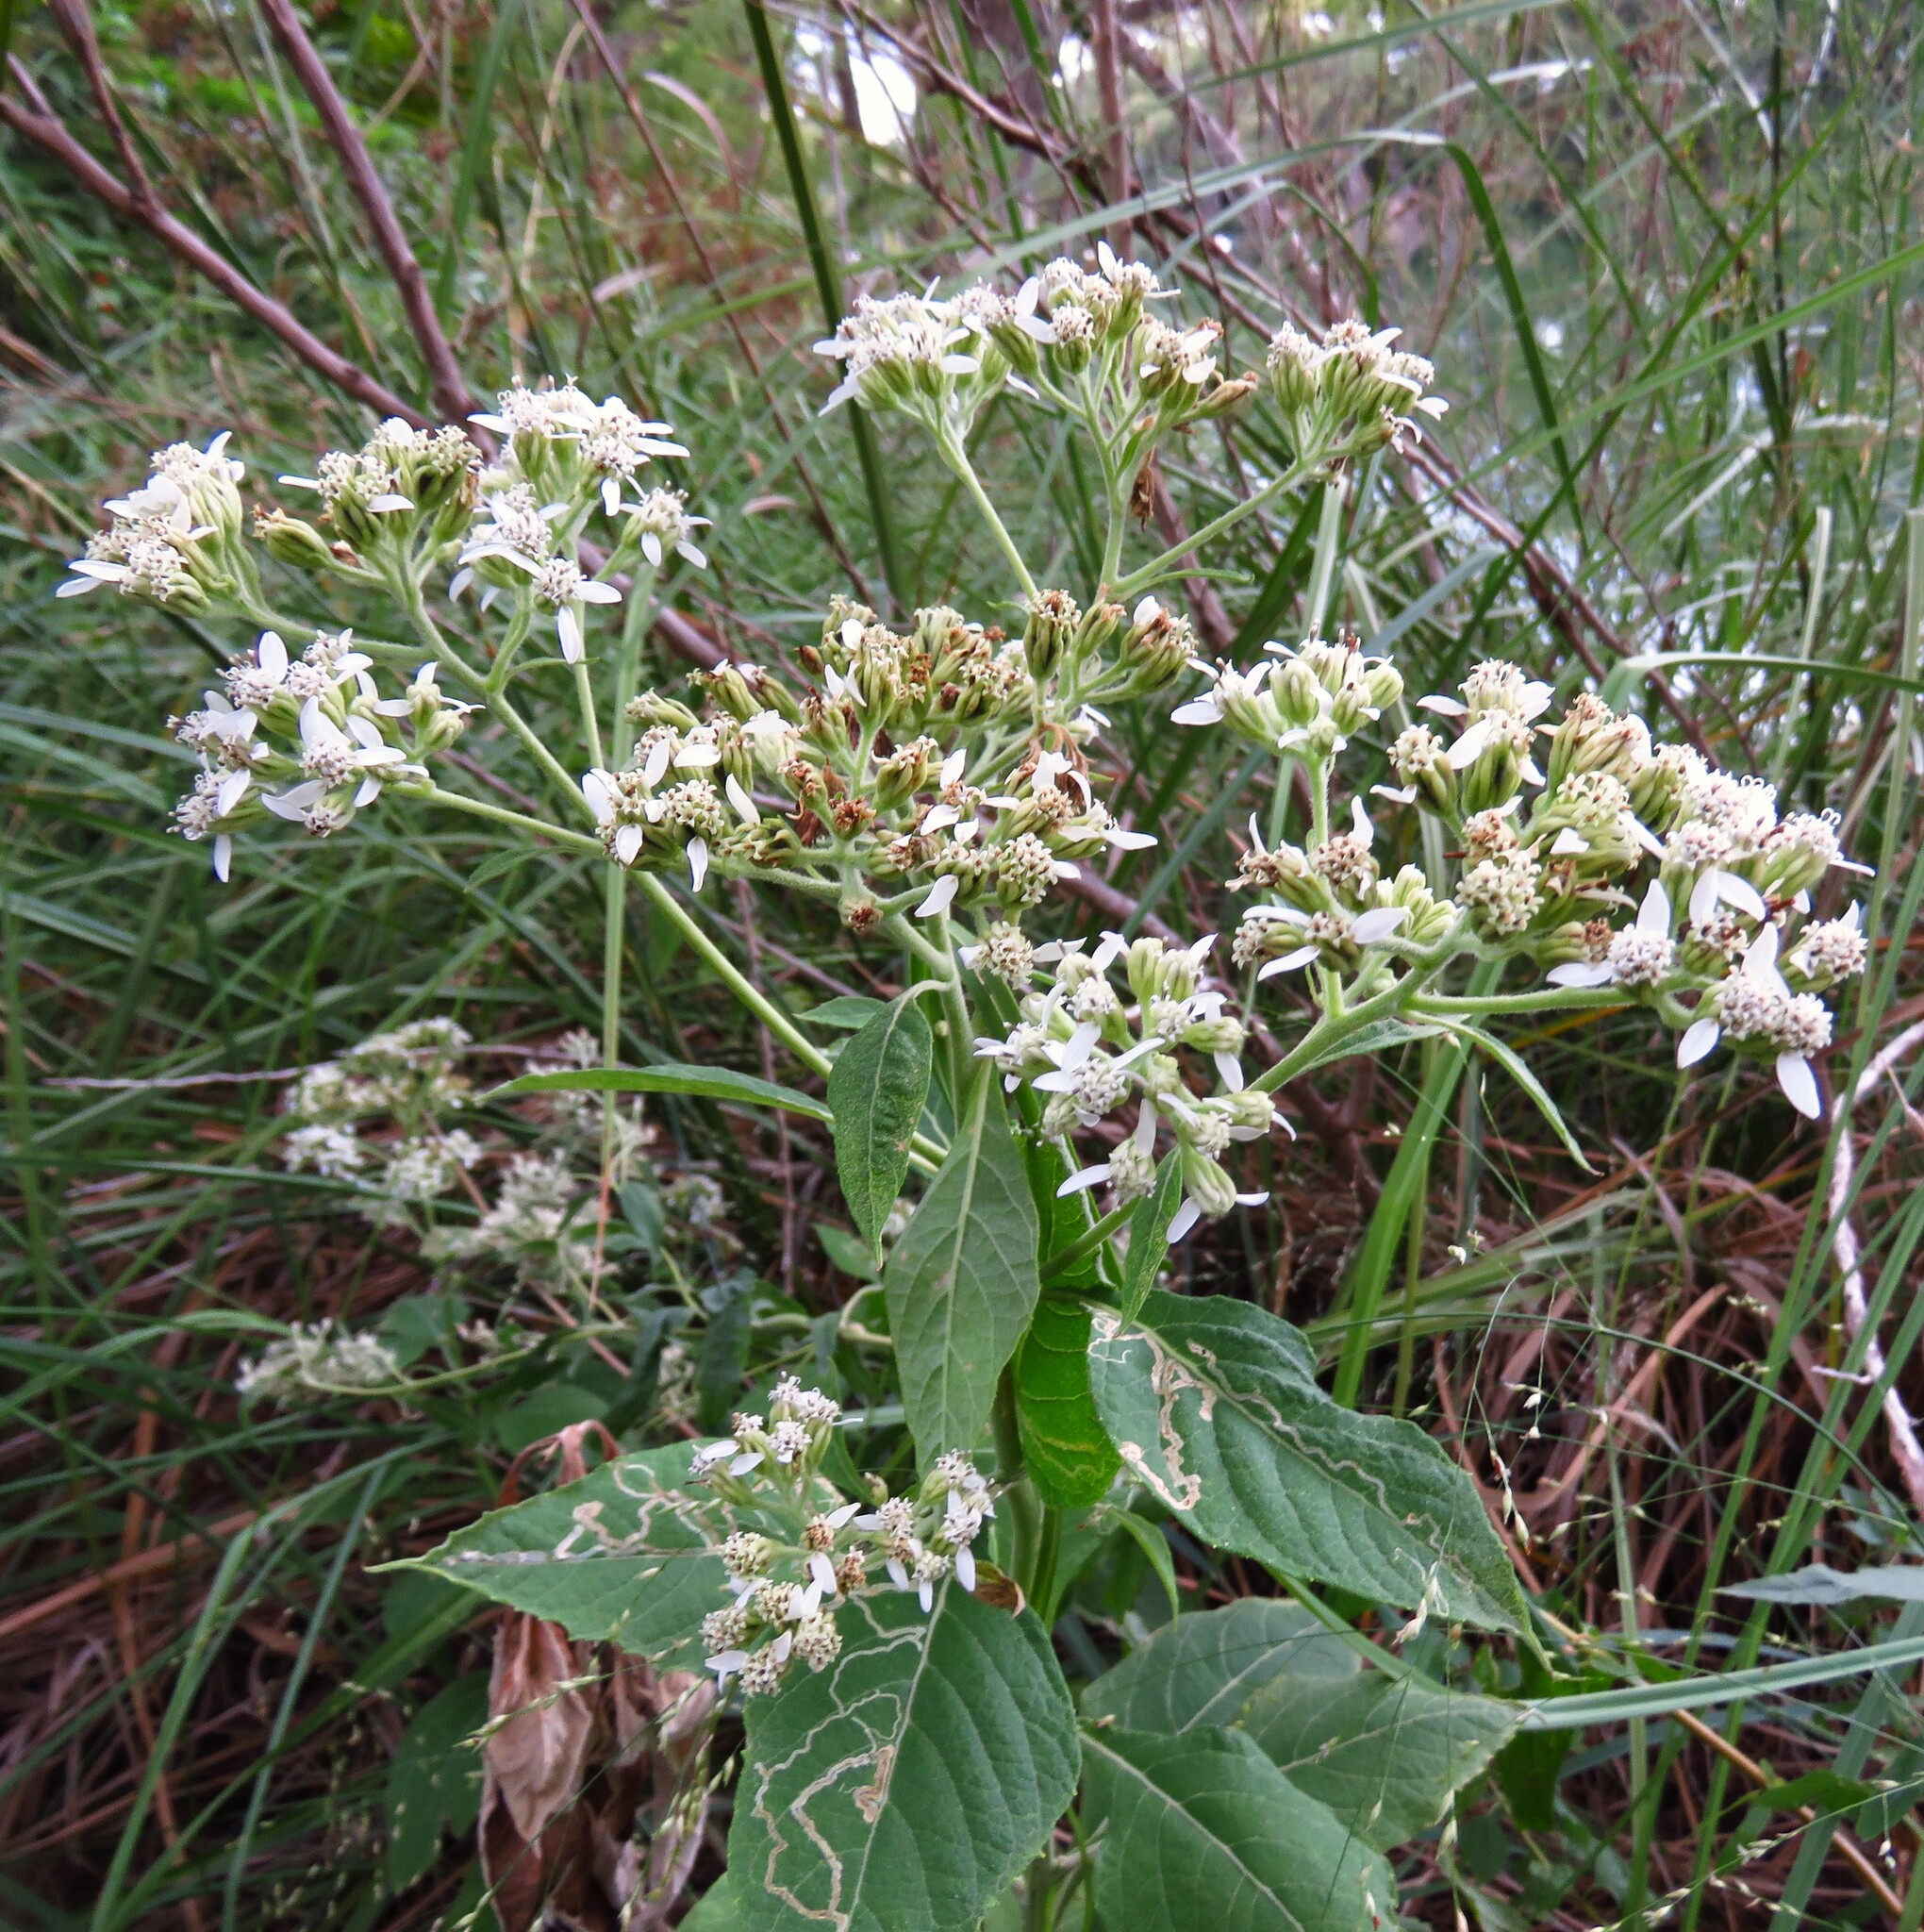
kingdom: Plantae
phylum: Tracheophyta
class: Magnoliopsida
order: Asterales
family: Asteraceae
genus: Verbesina
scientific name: Verbesina virginica
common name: Frostweed
